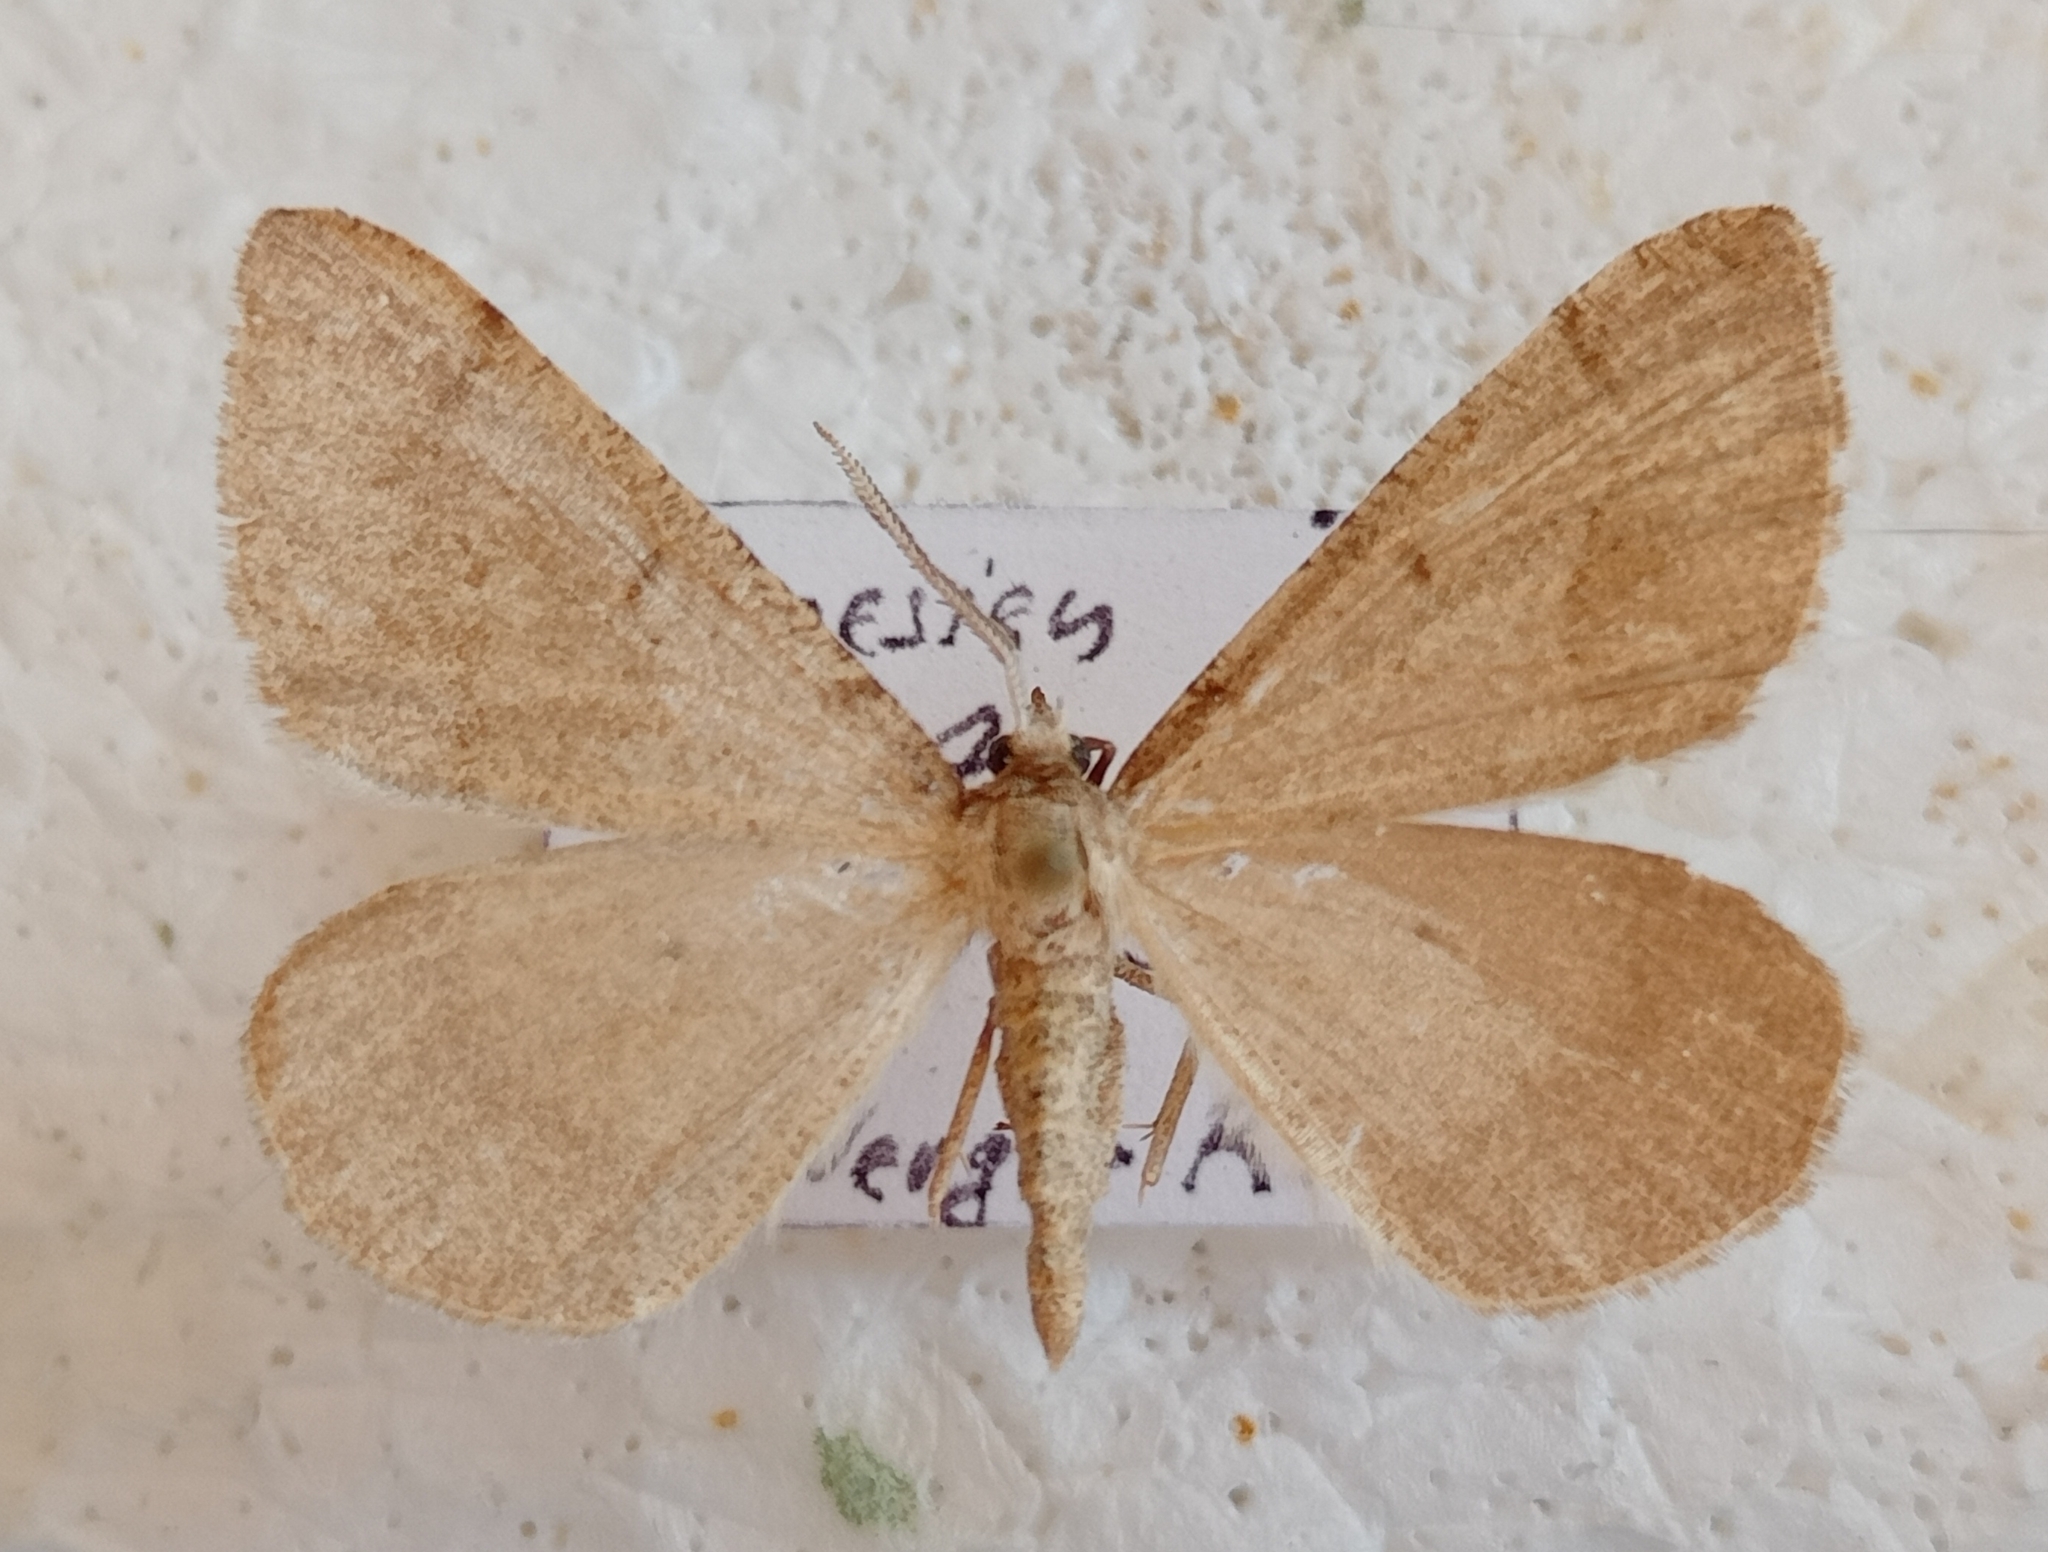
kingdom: Animalia
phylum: Arthropoda
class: Insecta
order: Lepidoptera
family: Geometridae
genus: Isturgia
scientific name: Isturgia spodiaria
